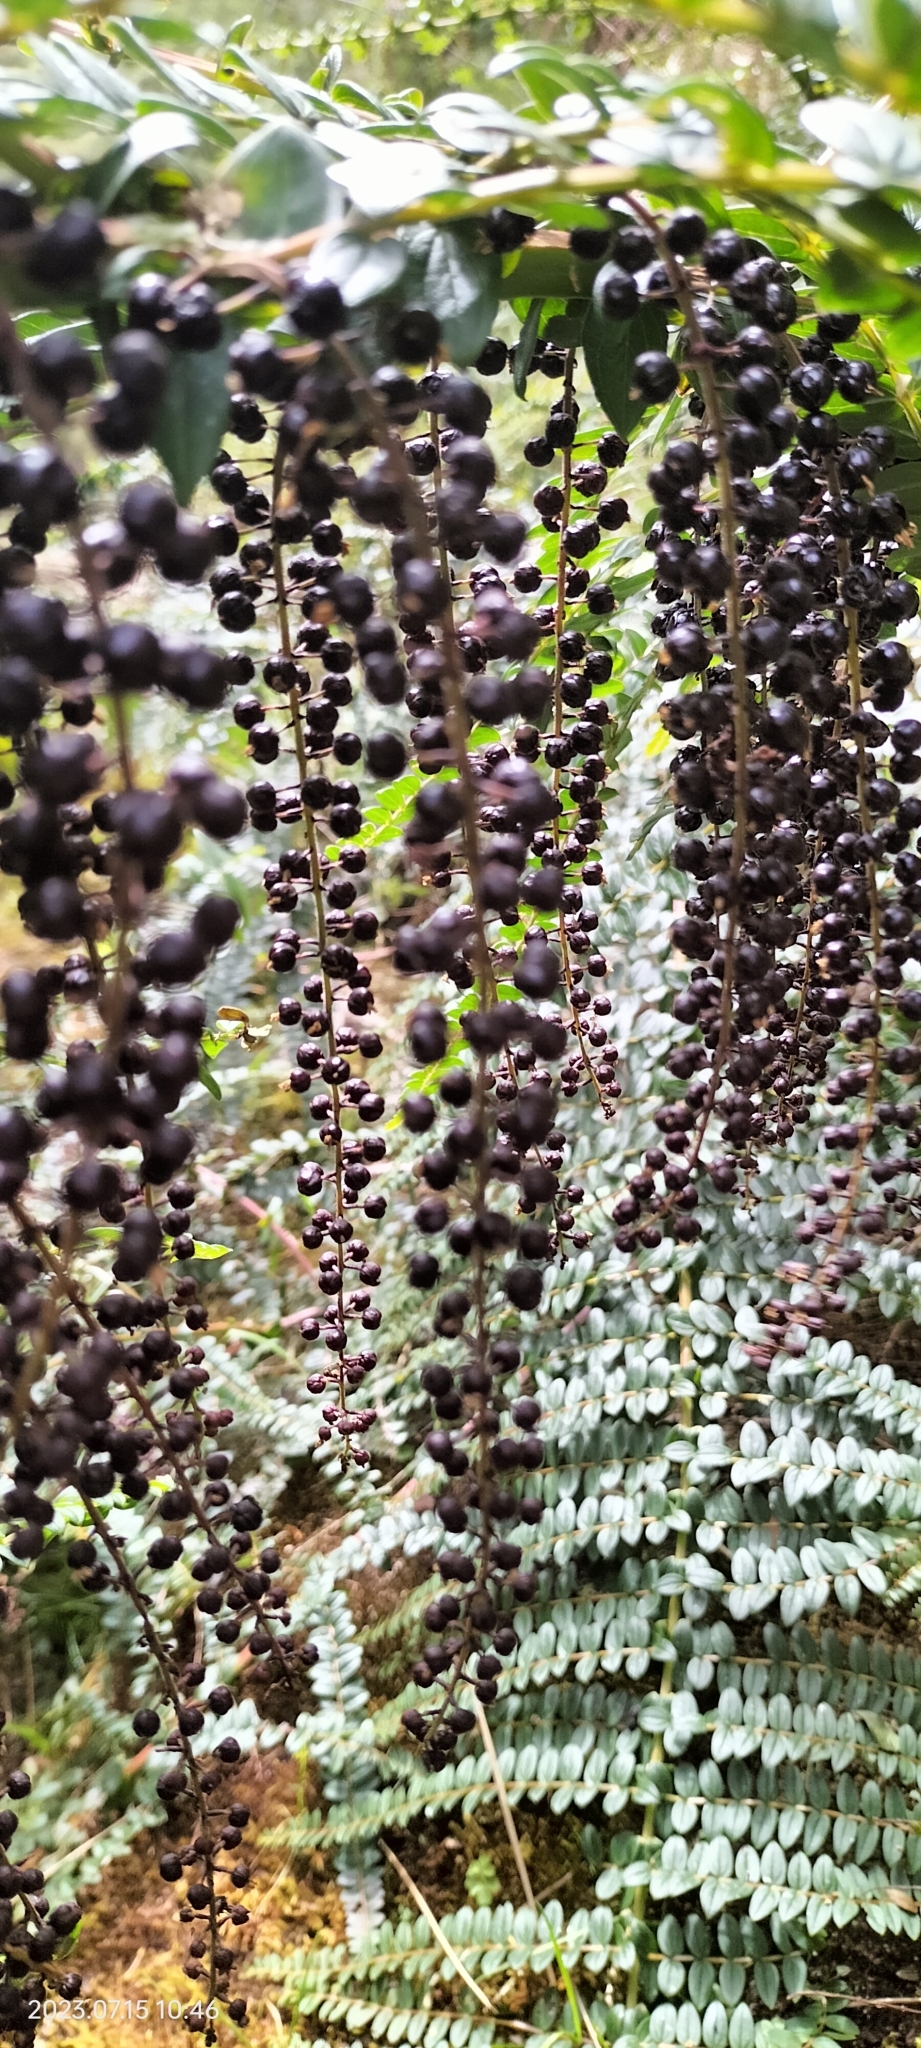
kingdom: Plantae
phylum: Tracheophyta
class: Magnoliopsida
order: Cucurbitales
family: Coriariaceae
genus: Coriaria
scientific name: Coriaria ruscifolia
